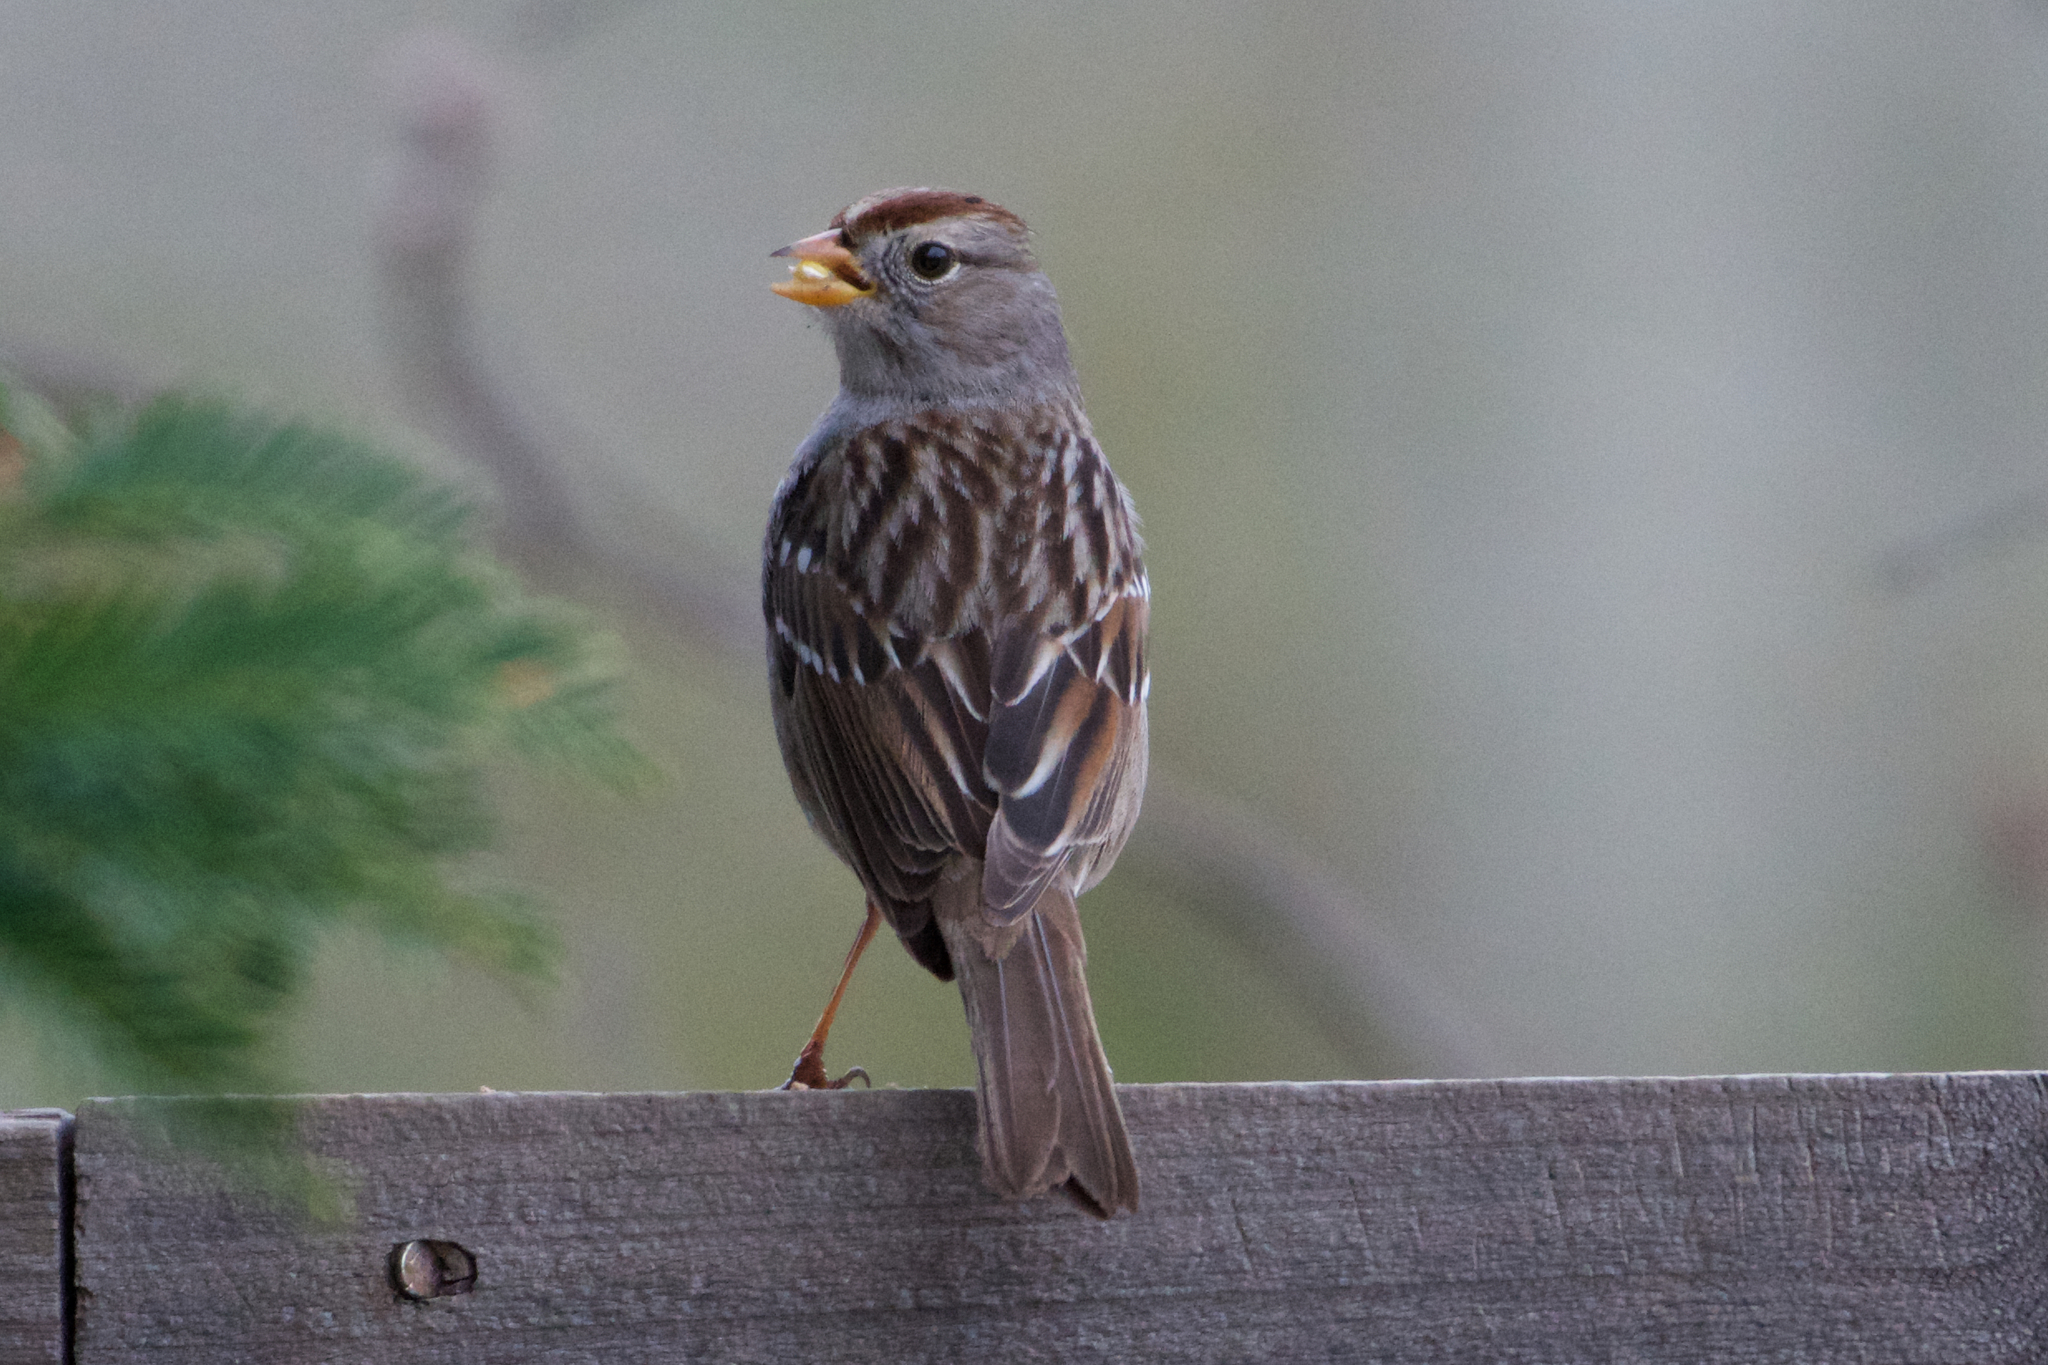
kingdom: Animalia
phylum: Chordata
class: Aves
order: Passeriformes
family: Passerellidae
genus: Zonotrichia
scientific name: Zonotrichia leucophrys
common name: White-crowned sparrow
